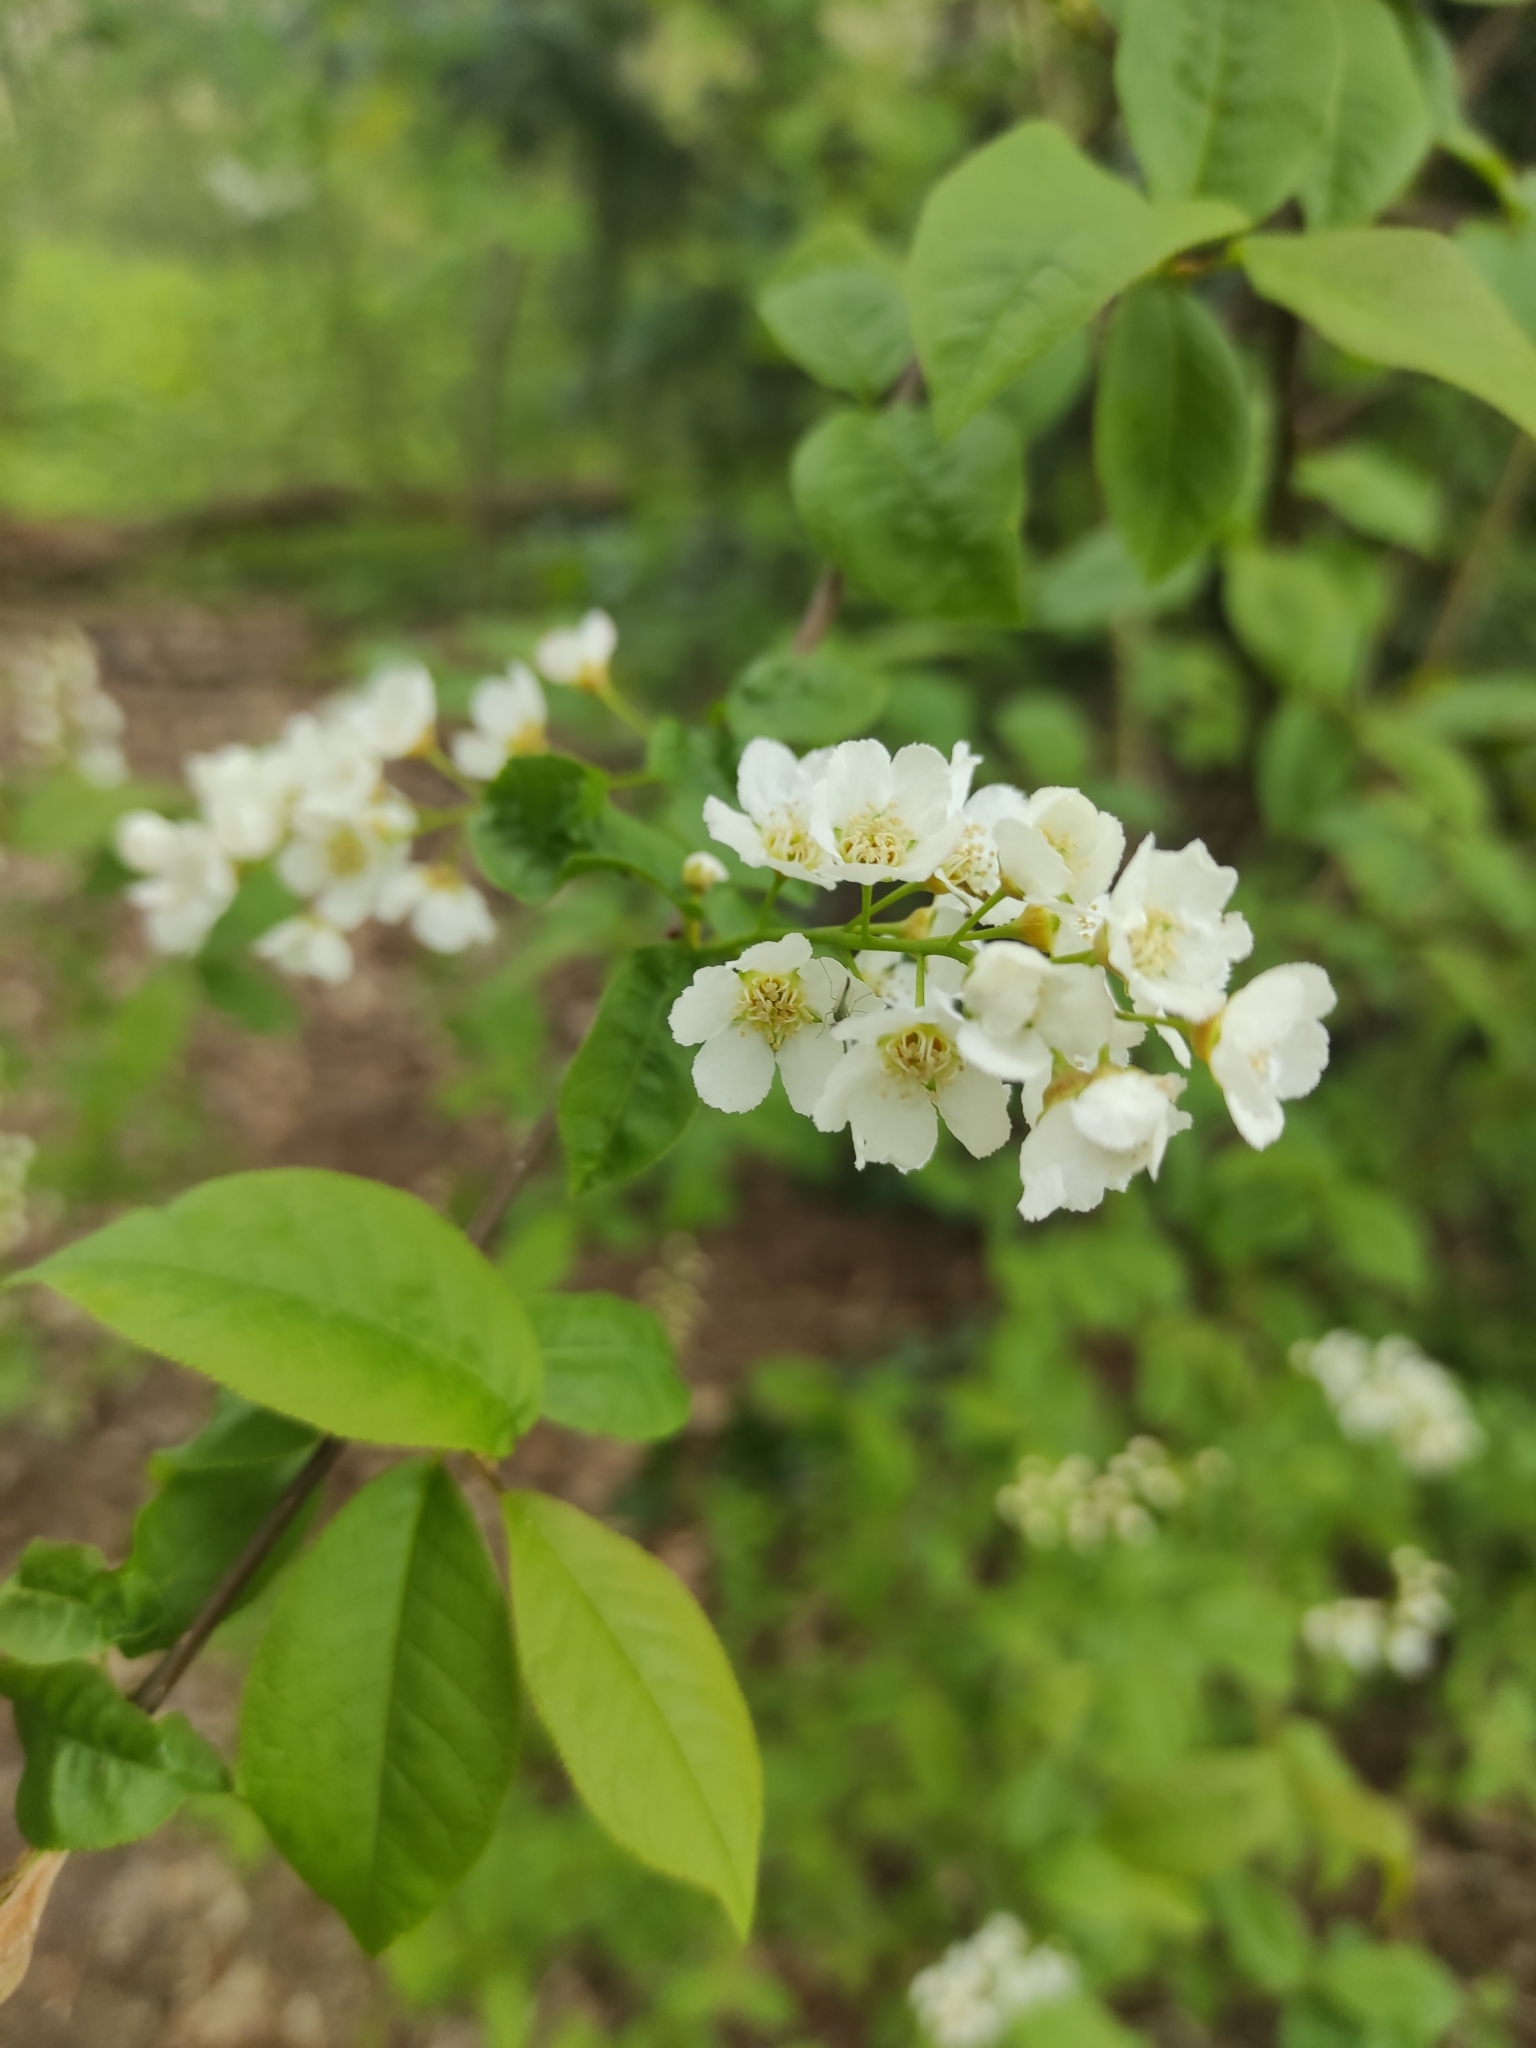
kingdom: Plantae
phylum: Tracheophyta
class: Magnoliopsida
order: Rosales
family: Rosaceae
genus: Prunus
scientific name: Prunus padus
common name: Bird cherry
